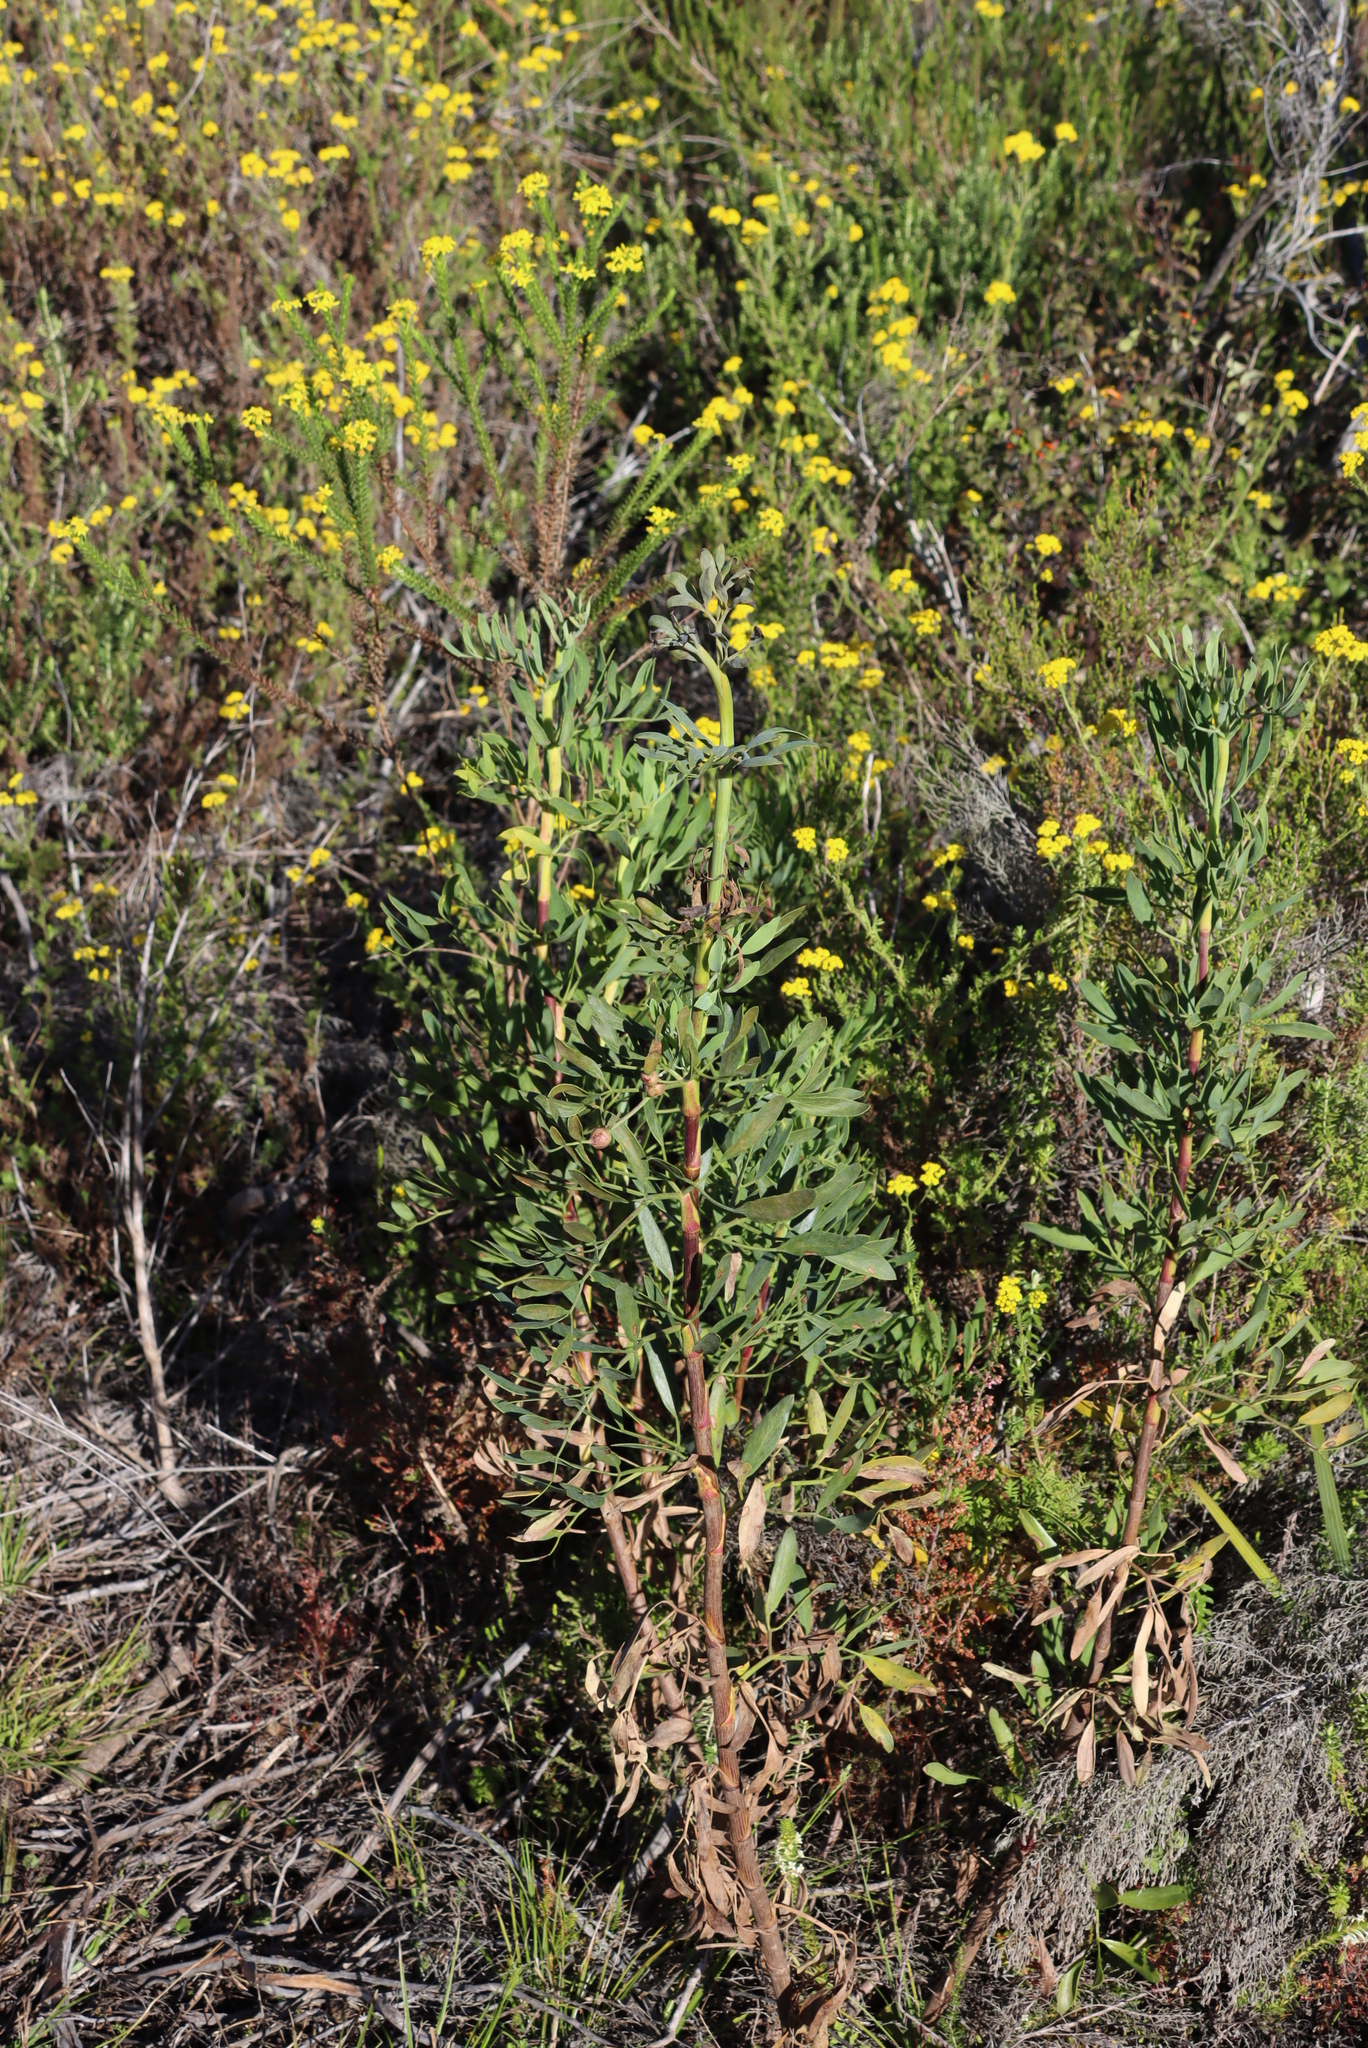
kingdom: Plantae
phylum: Tracheophyta
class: Magnoliopsida
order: Apiales
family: Apiaceae
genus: Notobubon
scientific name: Notobubon laevigatum
